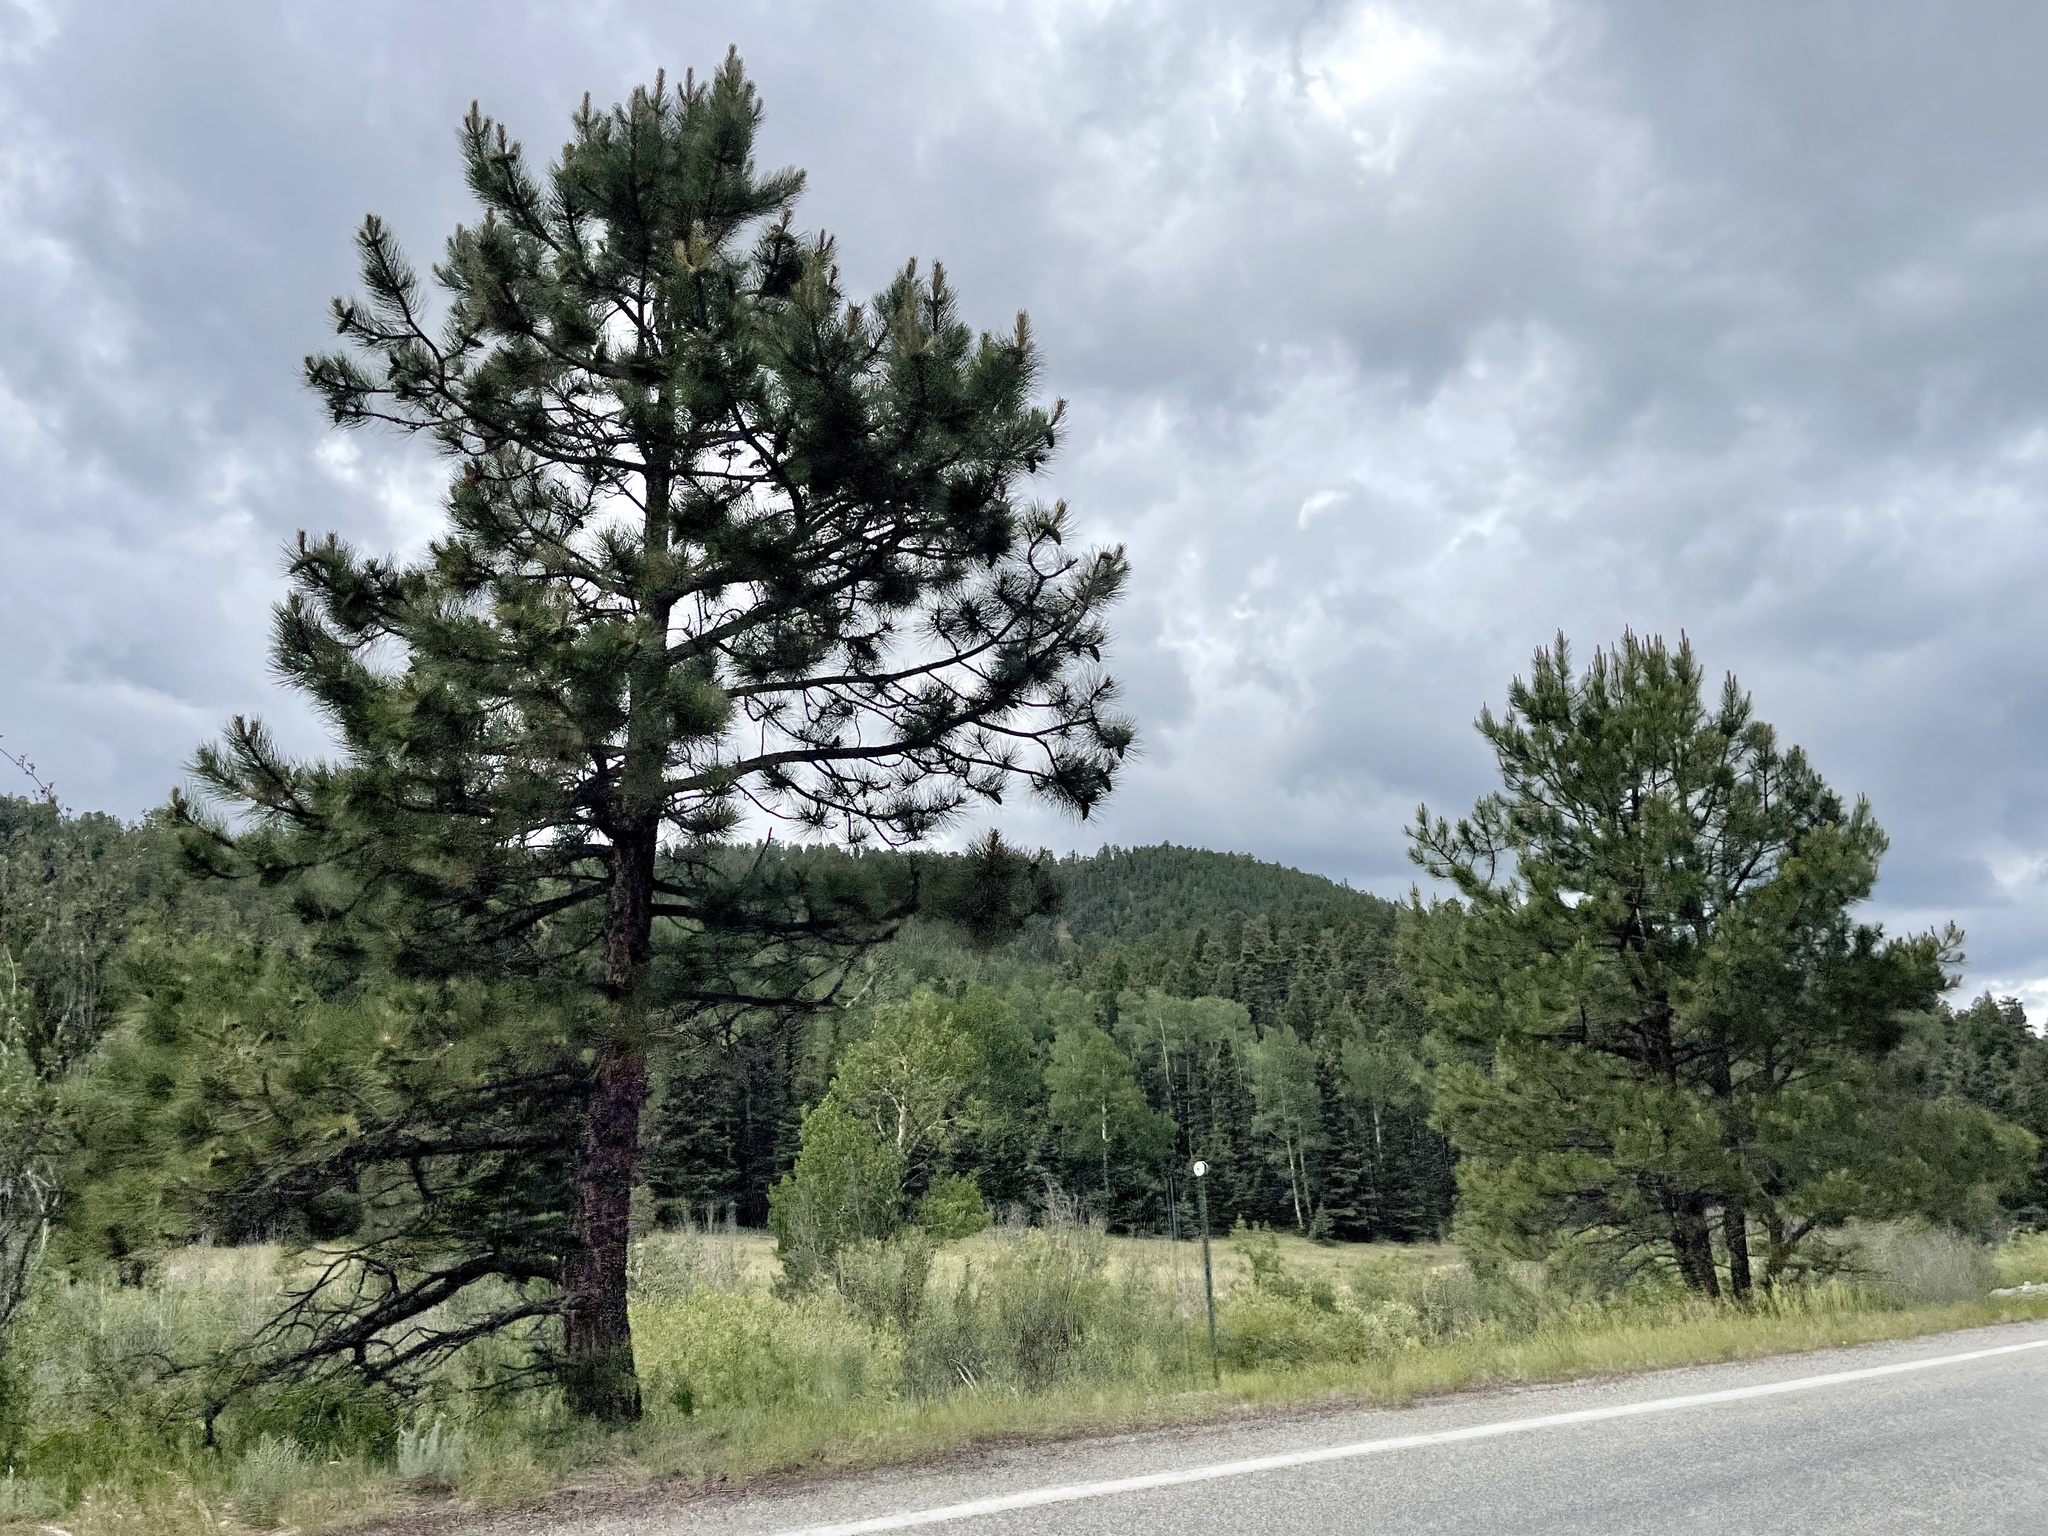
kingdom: Plantae
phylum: Tracheophyta
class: Pinopsida
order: Pinales
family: Pinaceae
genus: Pinus
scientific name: Pinus ponderosa
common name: Western yellow-pine
